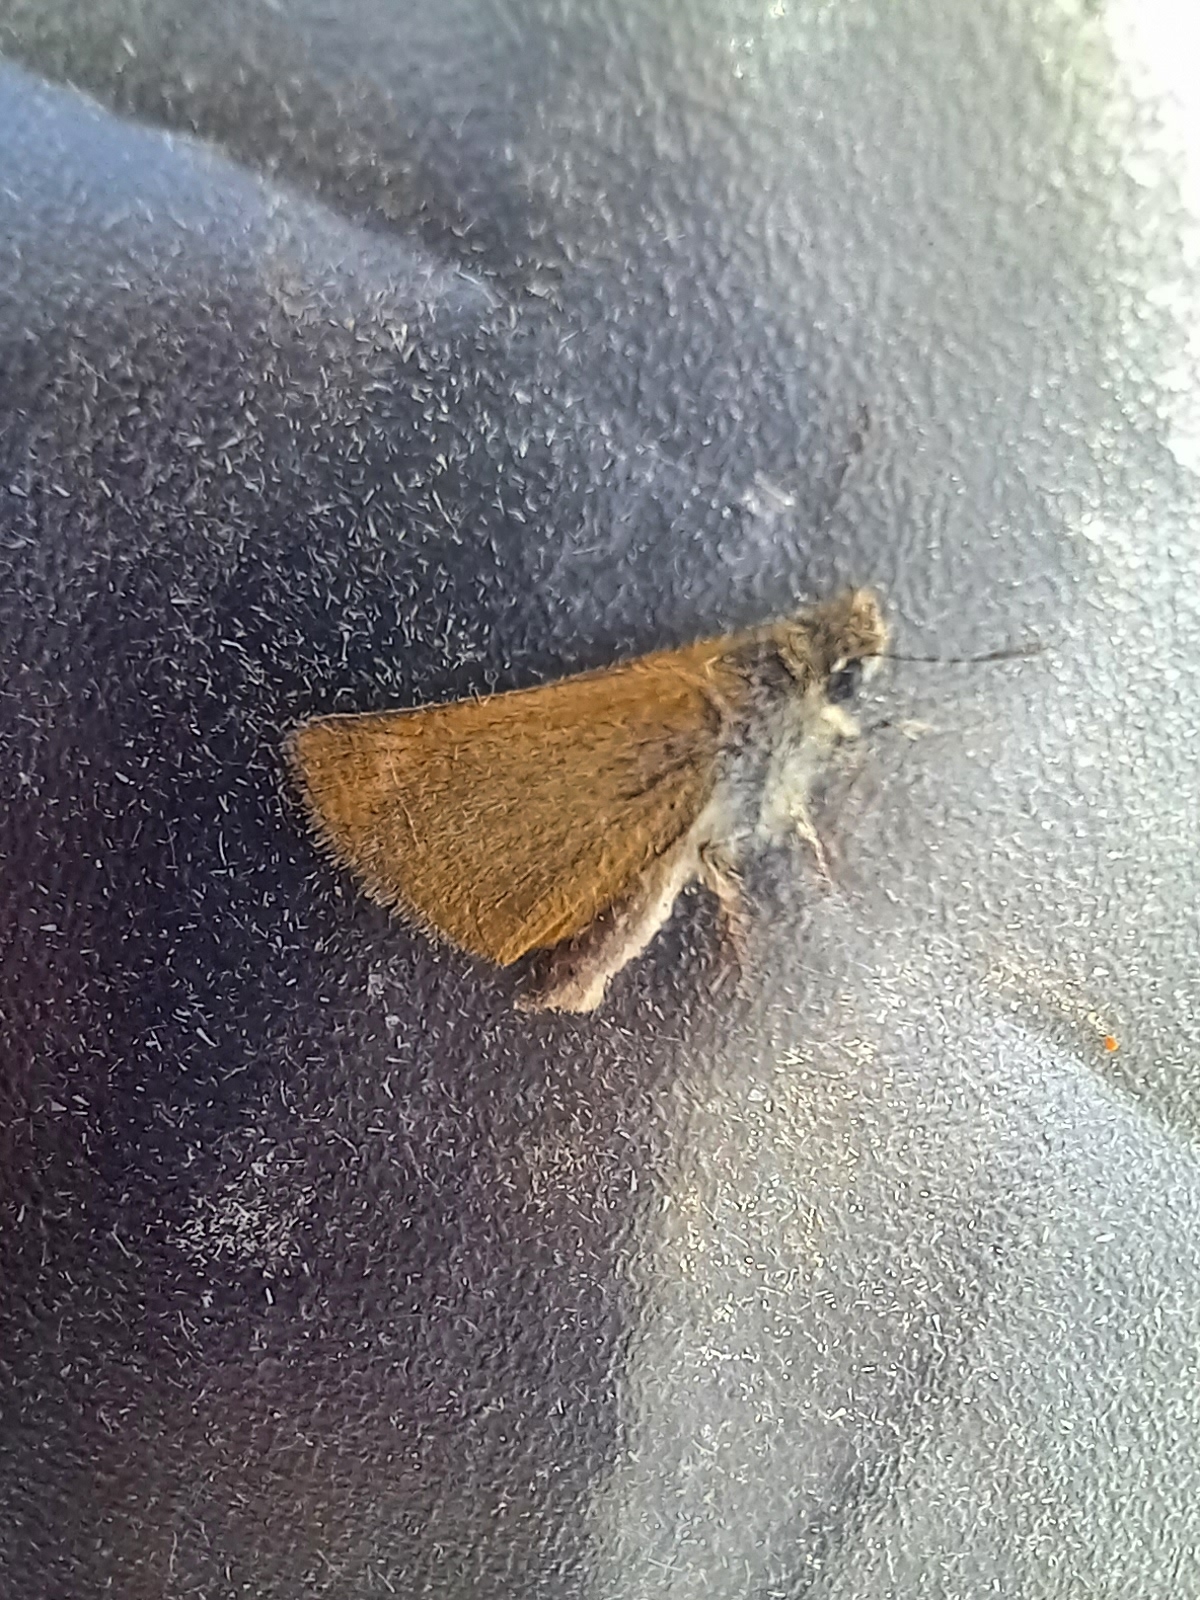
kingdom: Animalia
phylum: Arthropoda
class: Insecta
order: Lepidoptera
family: Hesperiidae
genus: Thymelicus
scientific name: Thymelicus acteon
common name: Lulworth skipper
